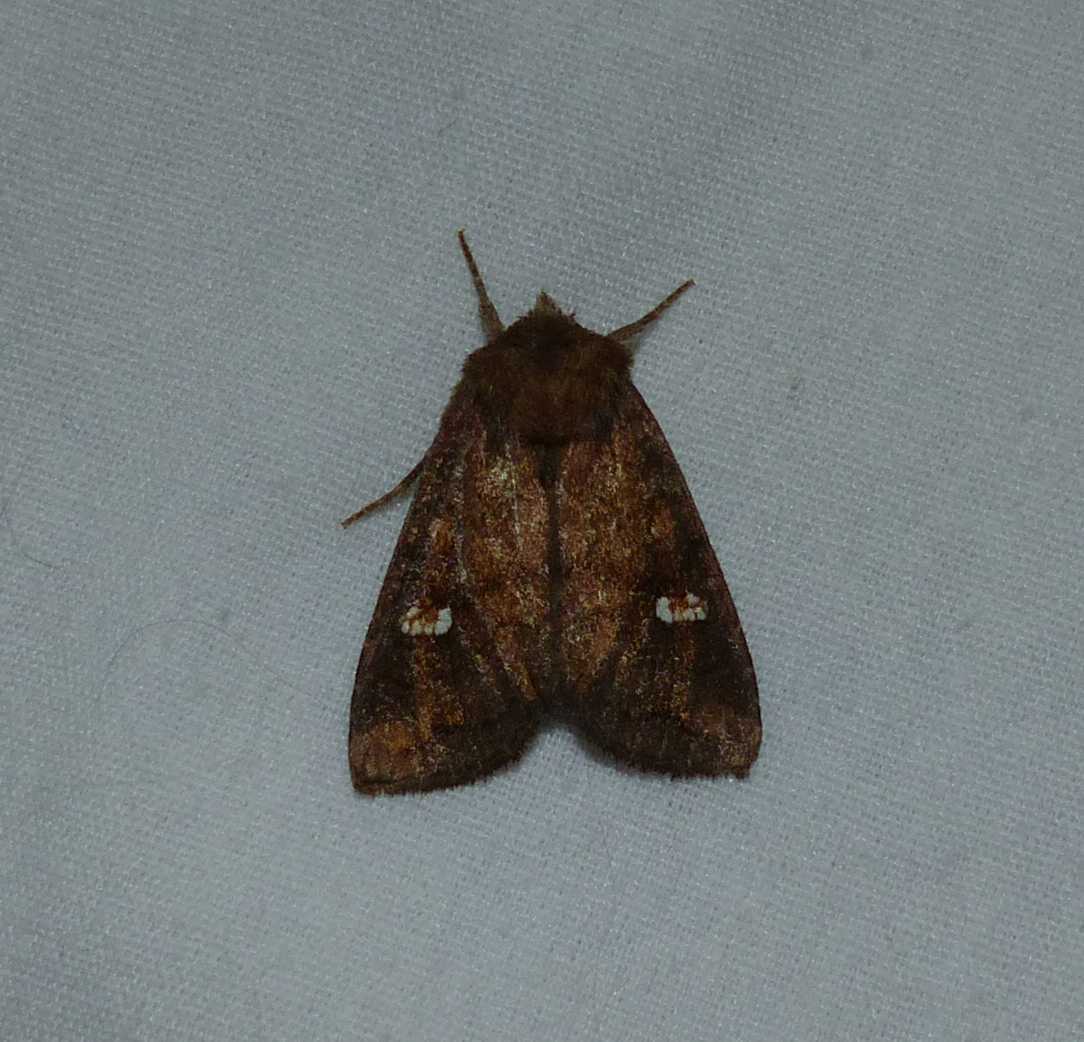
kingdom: Animalia
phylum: Arthropoda
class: Insecta
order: Lepidoptera
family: Noctuidae
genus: Tricholita
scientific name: Tricholita signata
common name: Signate quaker
